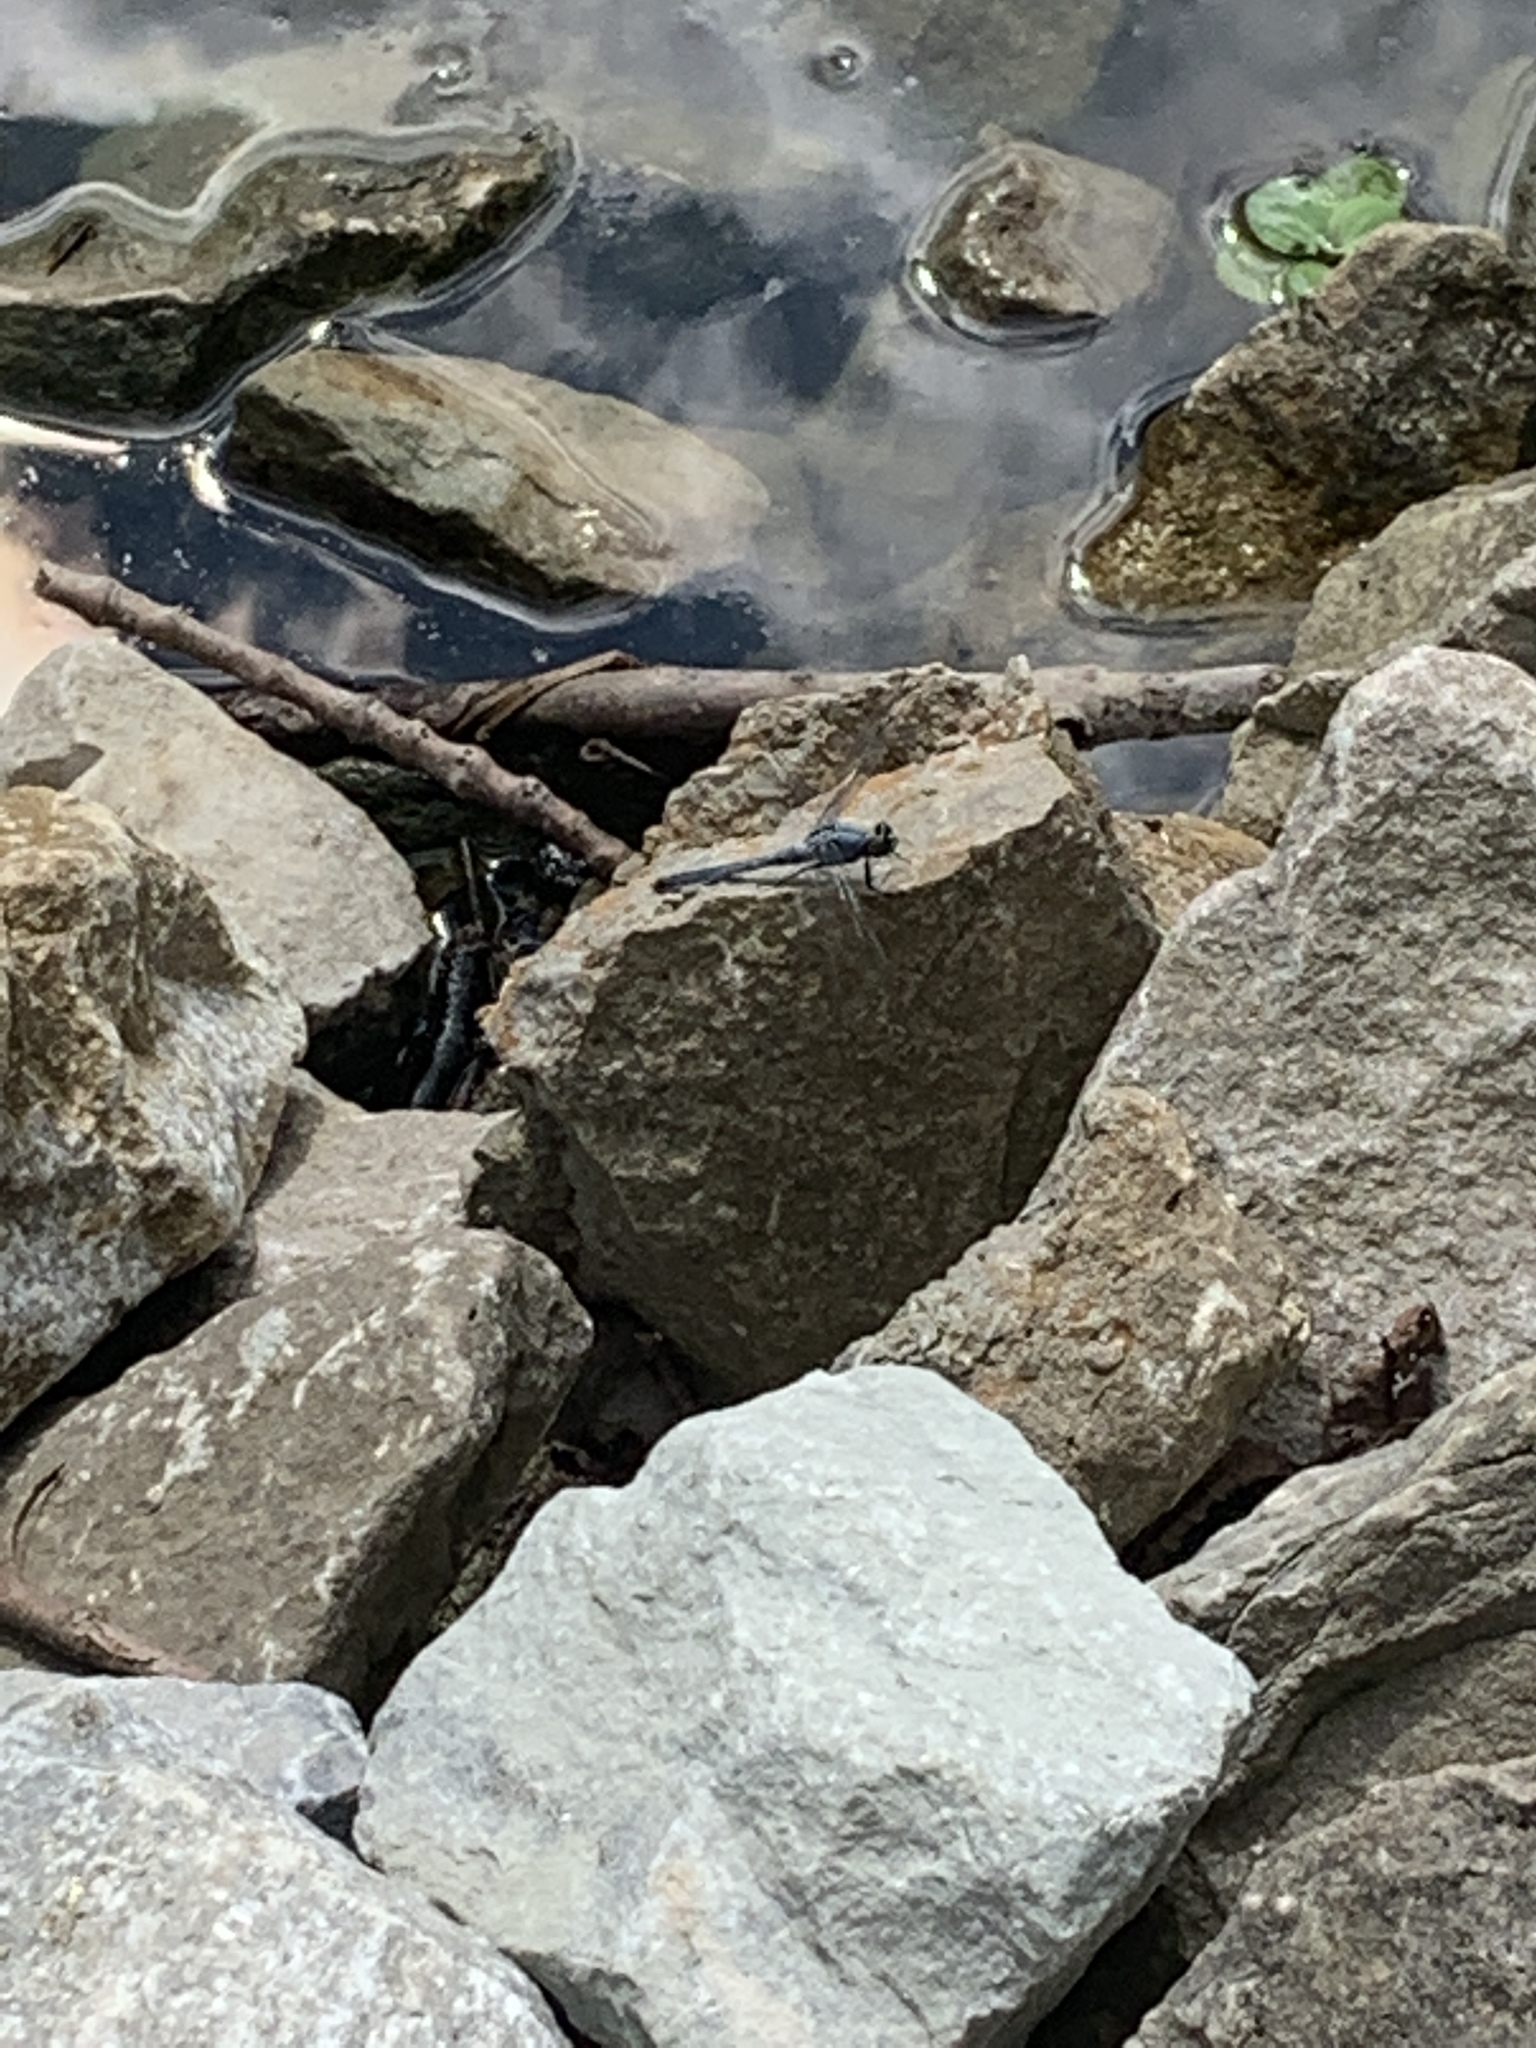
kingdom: Animalia
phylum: Arthropoda
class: Insecta
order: Odonata
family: Libellulidae
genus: Erythemis
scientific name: Erythemis simplicicollis
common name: Eastern pondhawk
